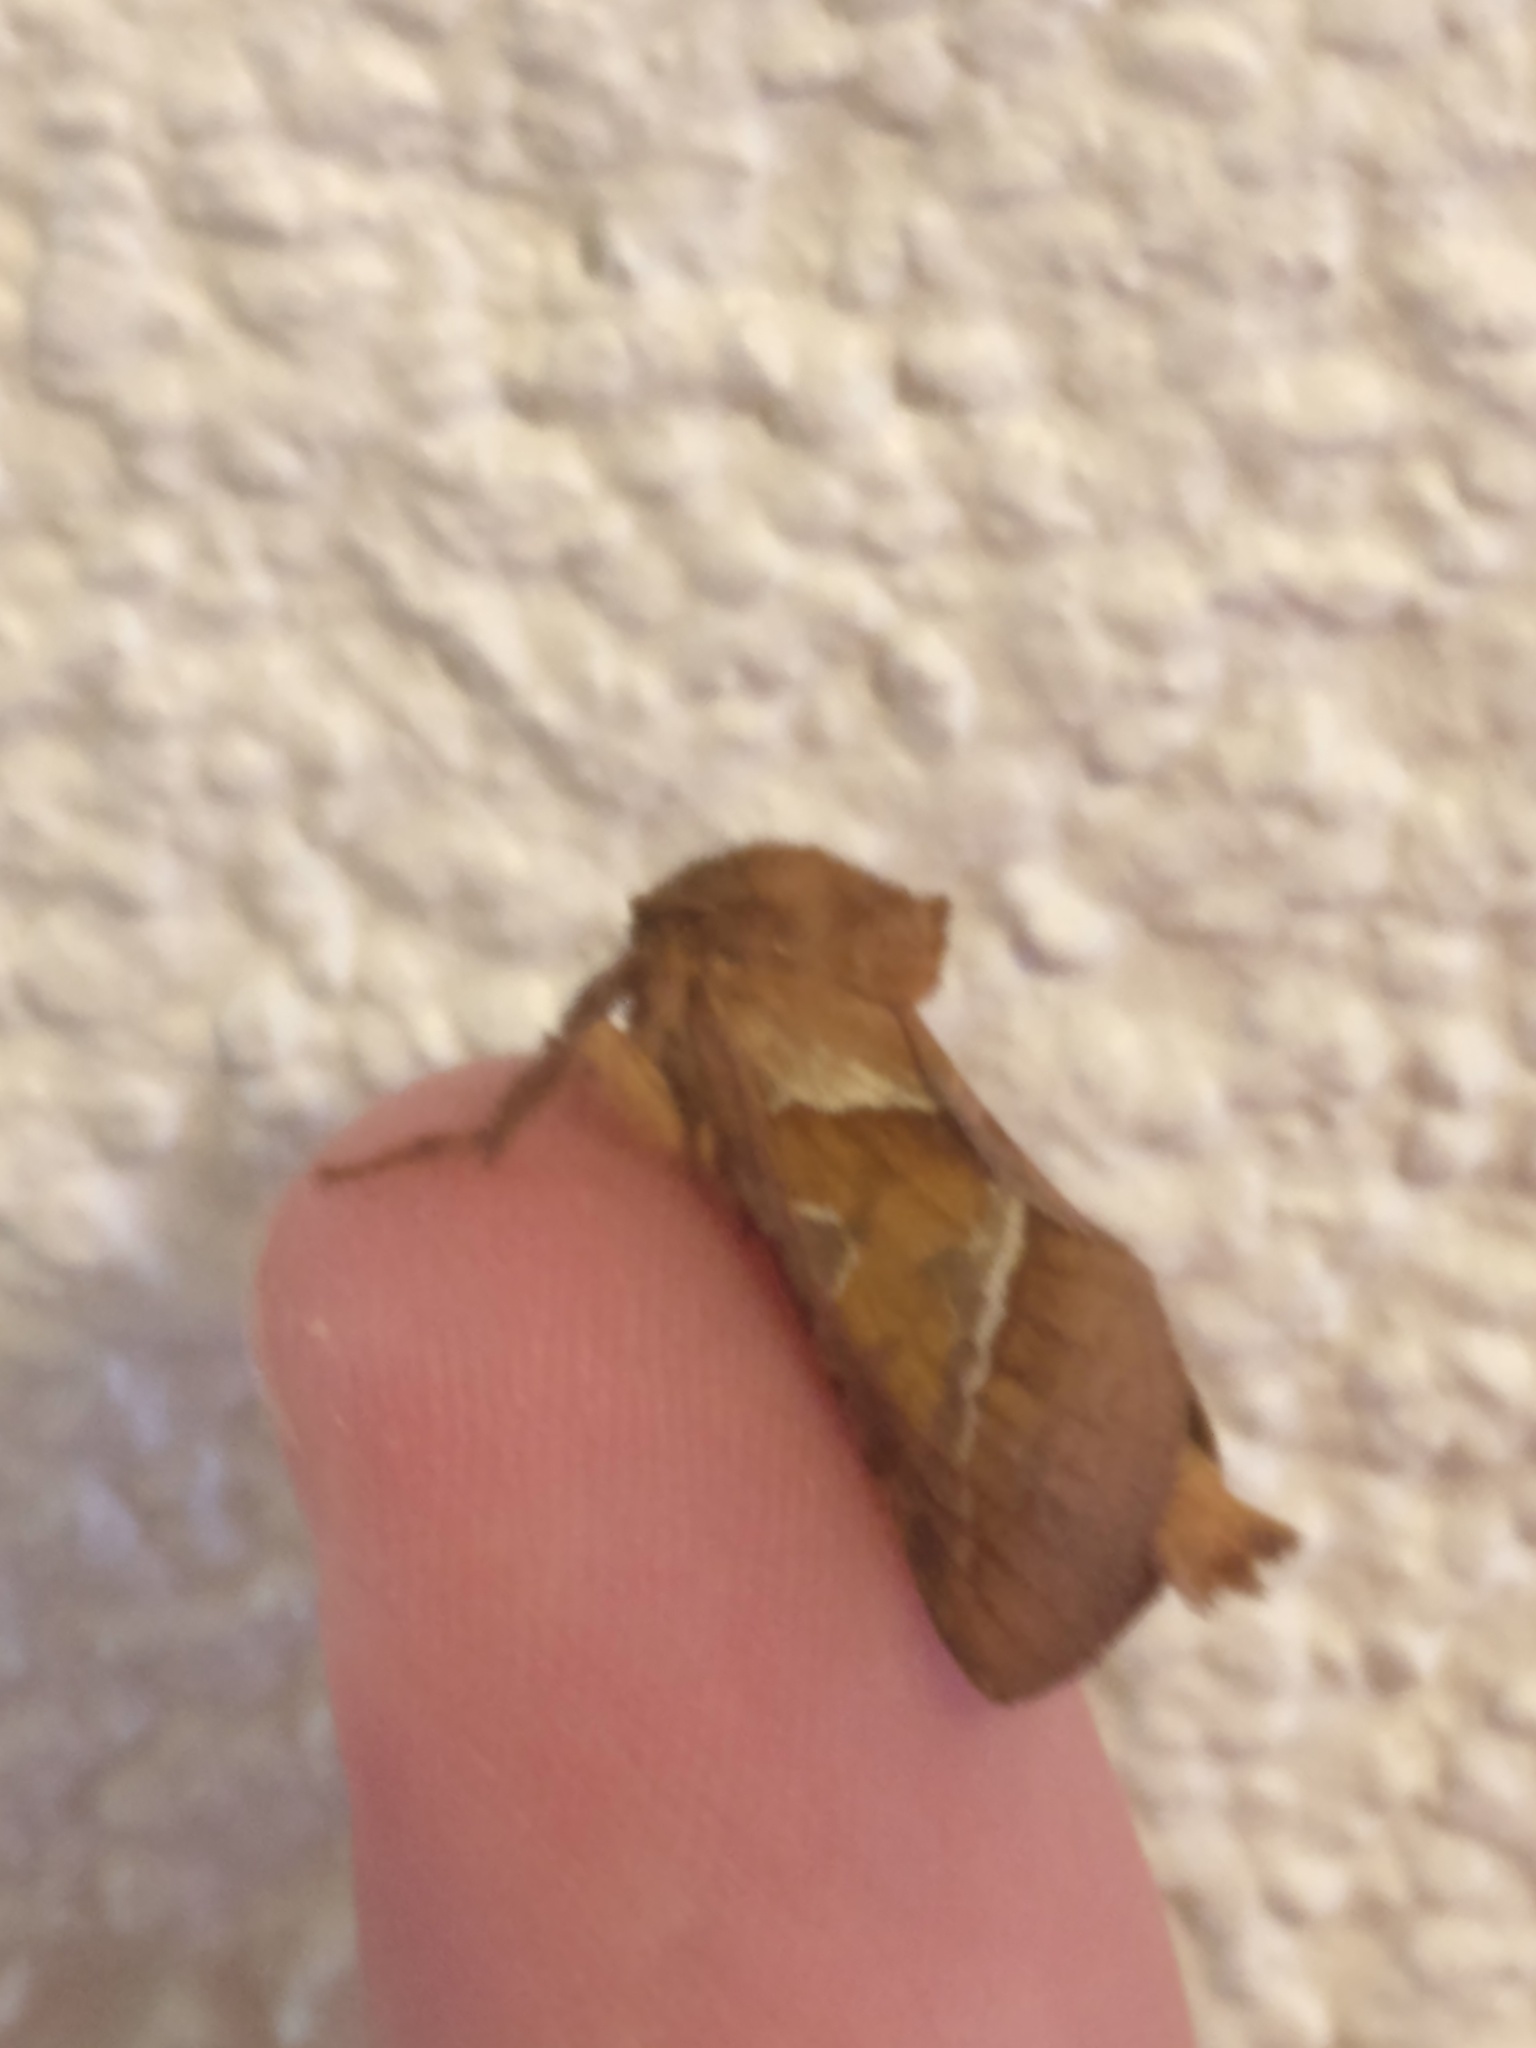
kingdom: Animalia
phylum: Arthropoda
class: Insecta
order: Lepidoptera
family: Hepialidae
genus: Triodia
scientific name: Triodia sylvina
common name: Orange swift
